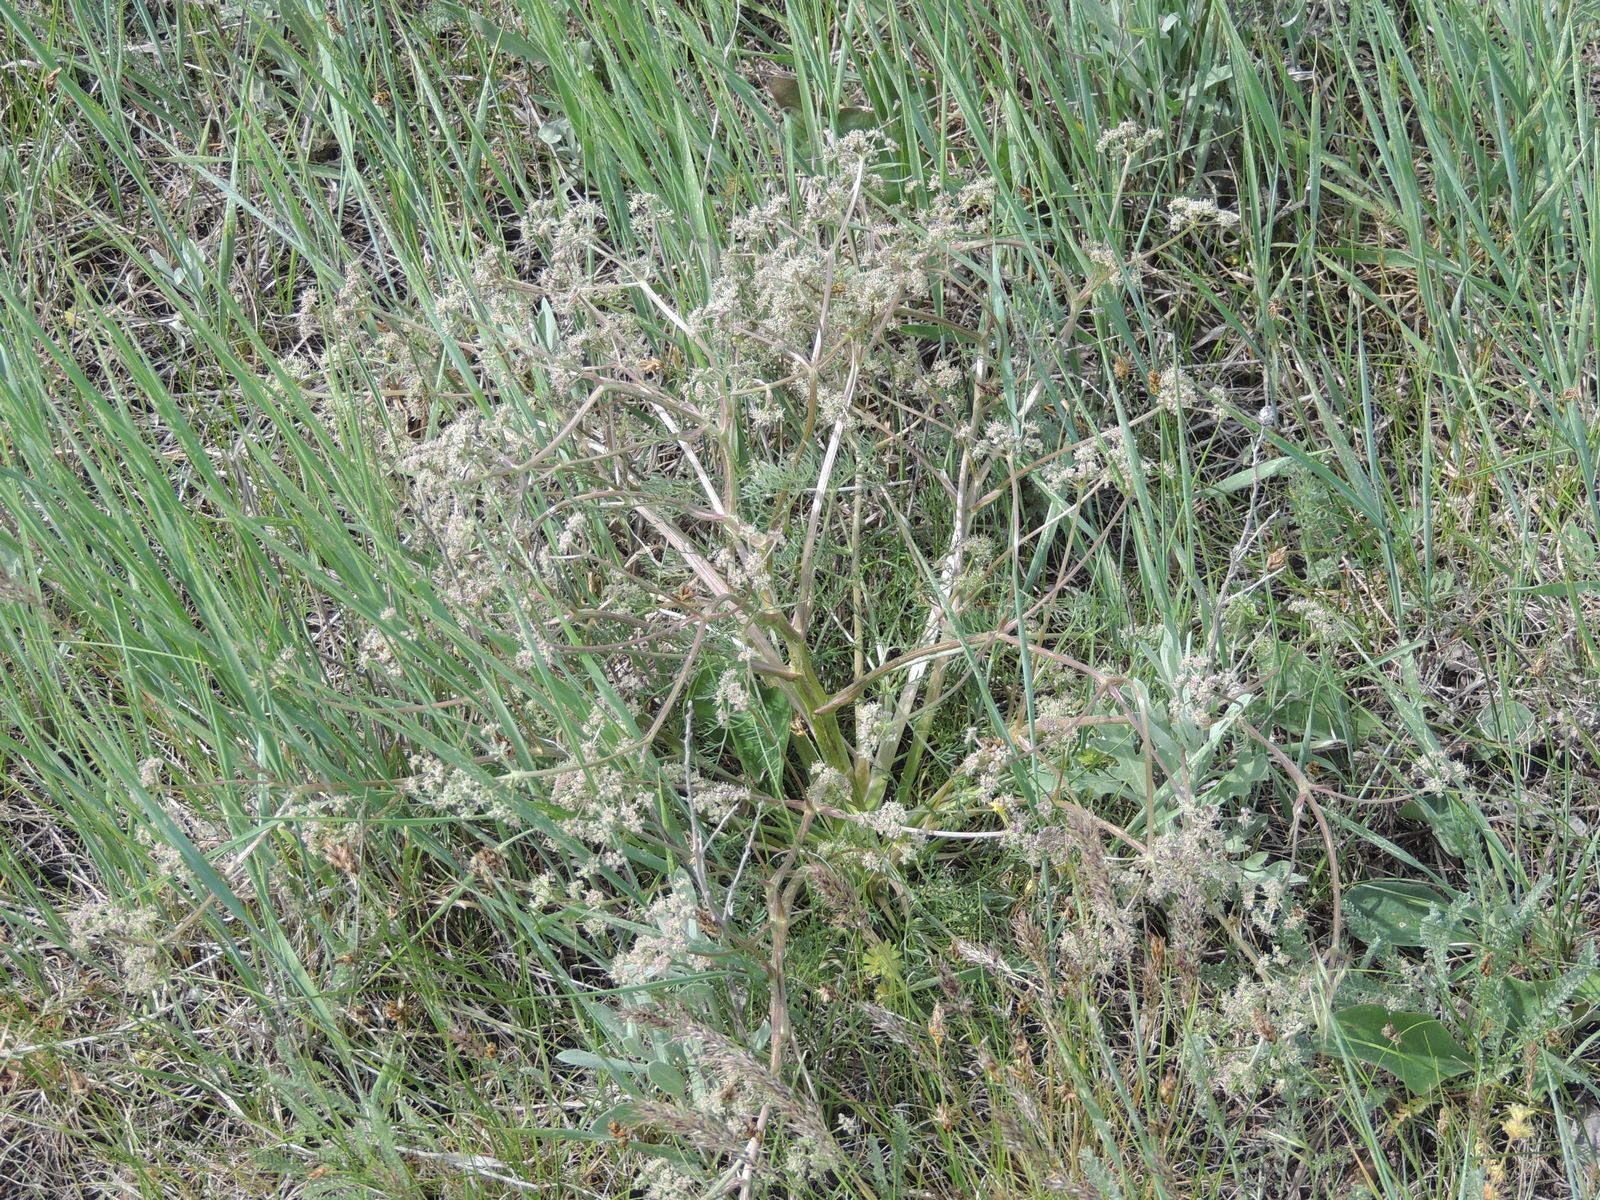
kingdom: Plantae
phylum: Tracheophyta
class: Magnoliopsida
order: Apiales
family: Apiaceae
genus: Trinia
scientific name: Trinia hispida
